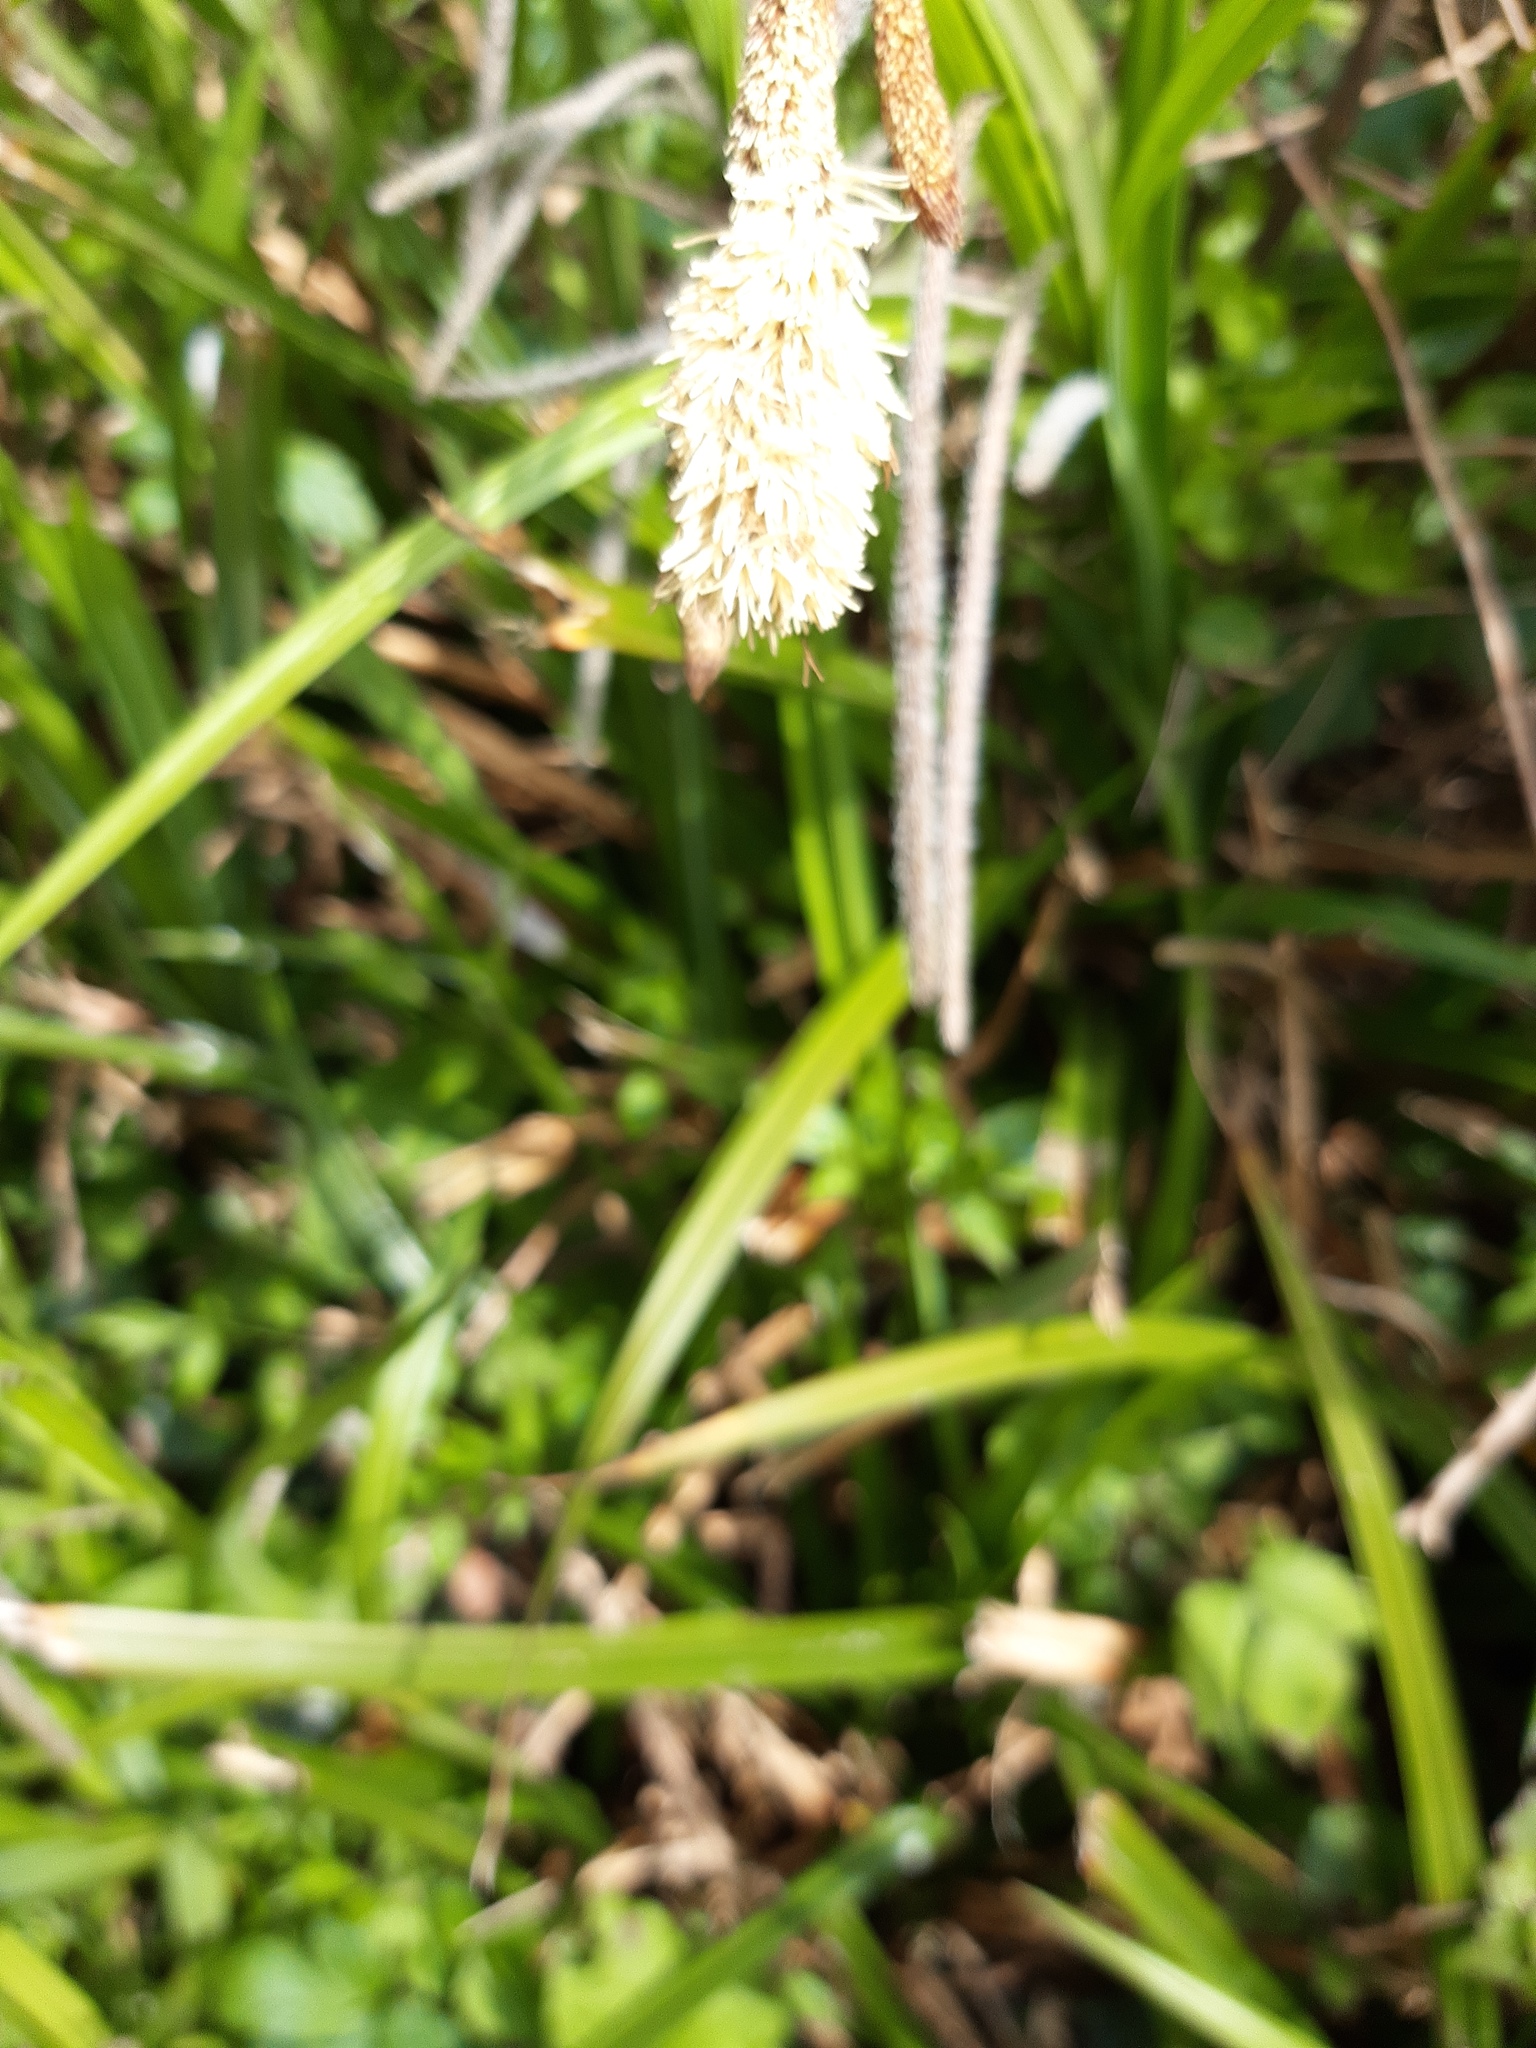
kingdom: Plantae
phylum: Tracheophyta
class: Liliopsida
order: Poales
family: Cyperaceae
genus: Carex
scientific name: Carex pendula
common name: Pendulous sedge
